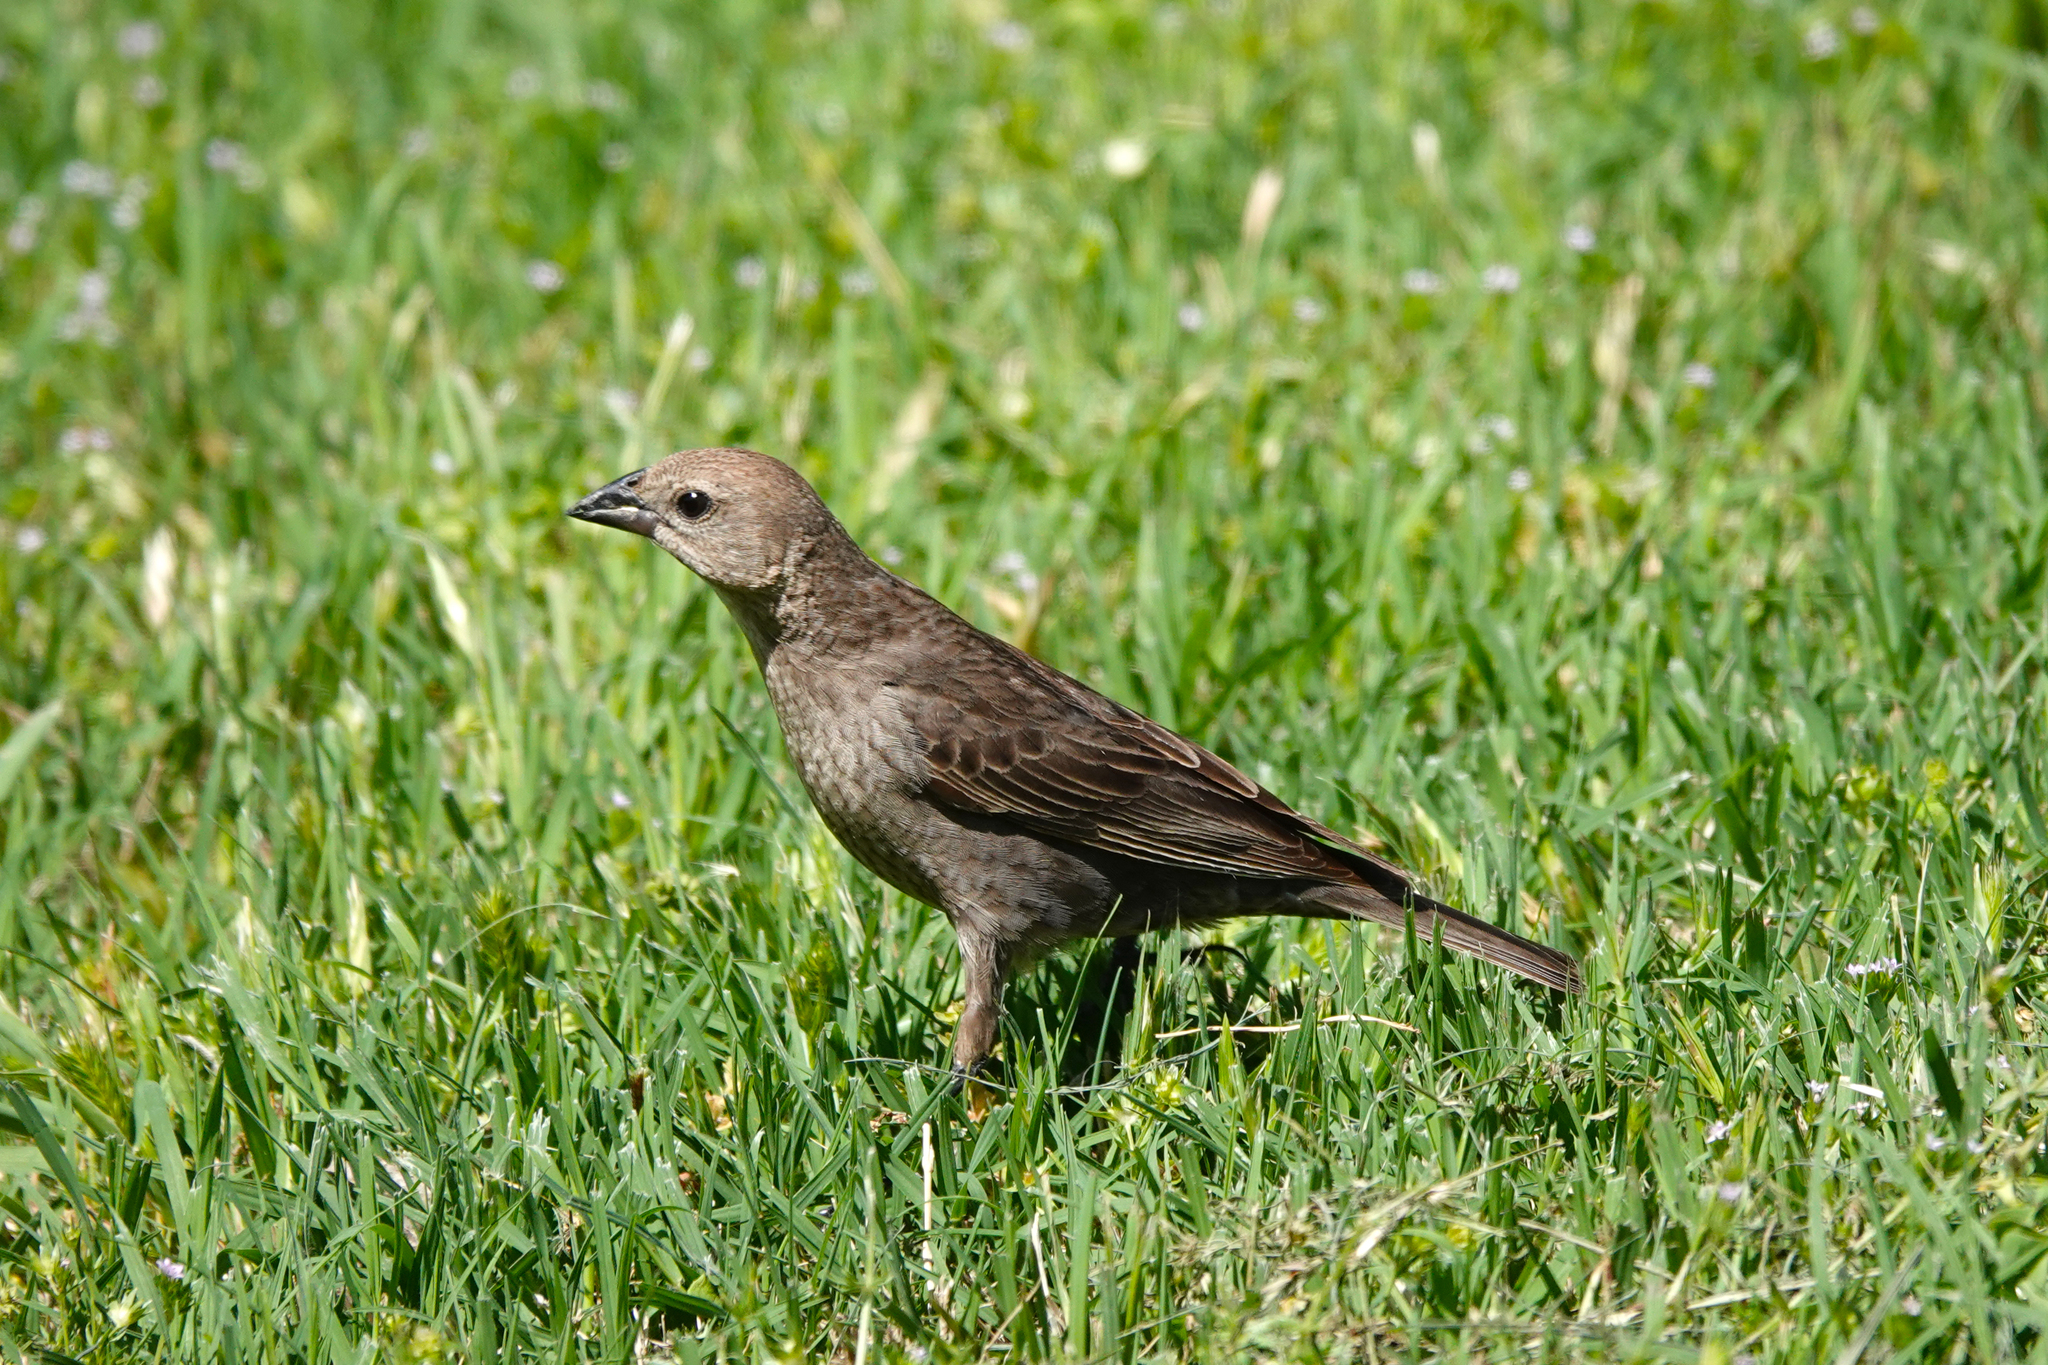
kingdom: Animalia
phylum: Chordata
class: Aves
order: Passeriformes
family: Icteridae
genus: Molothrus
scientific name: Molothrus ater
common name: Brown-headed cowbird
